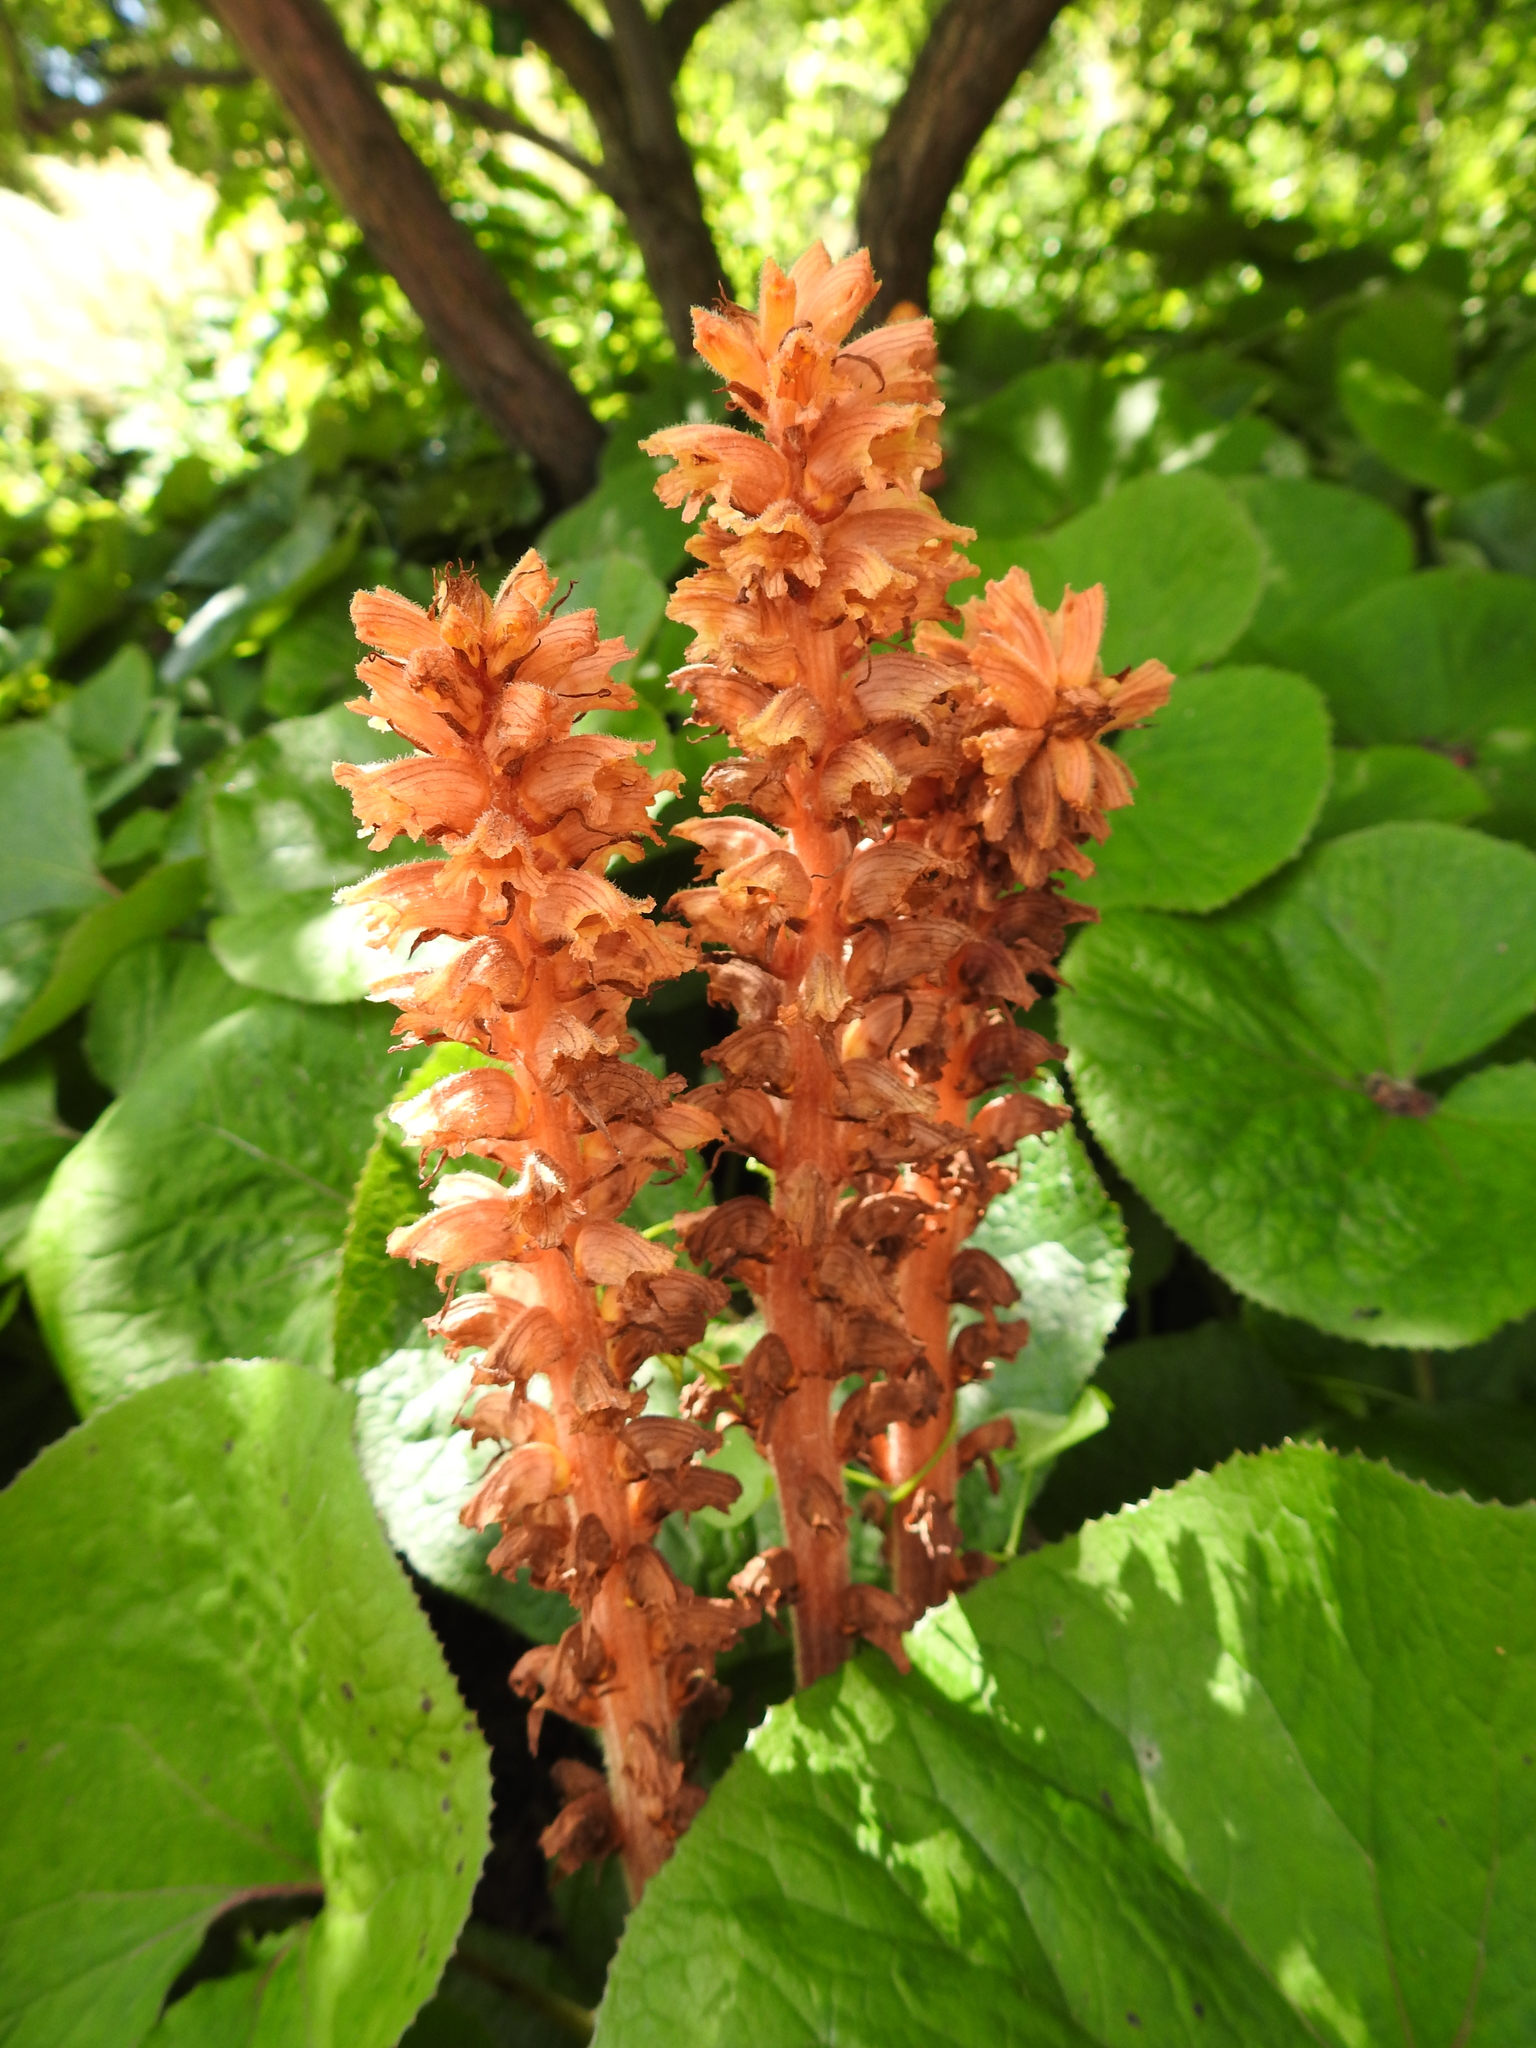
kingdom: Plantae
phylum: Tracheophyta
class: Magnoliopsida
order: Lamiales
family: Orobanchaceae
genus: Orobanche
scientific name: Orobanche flava
